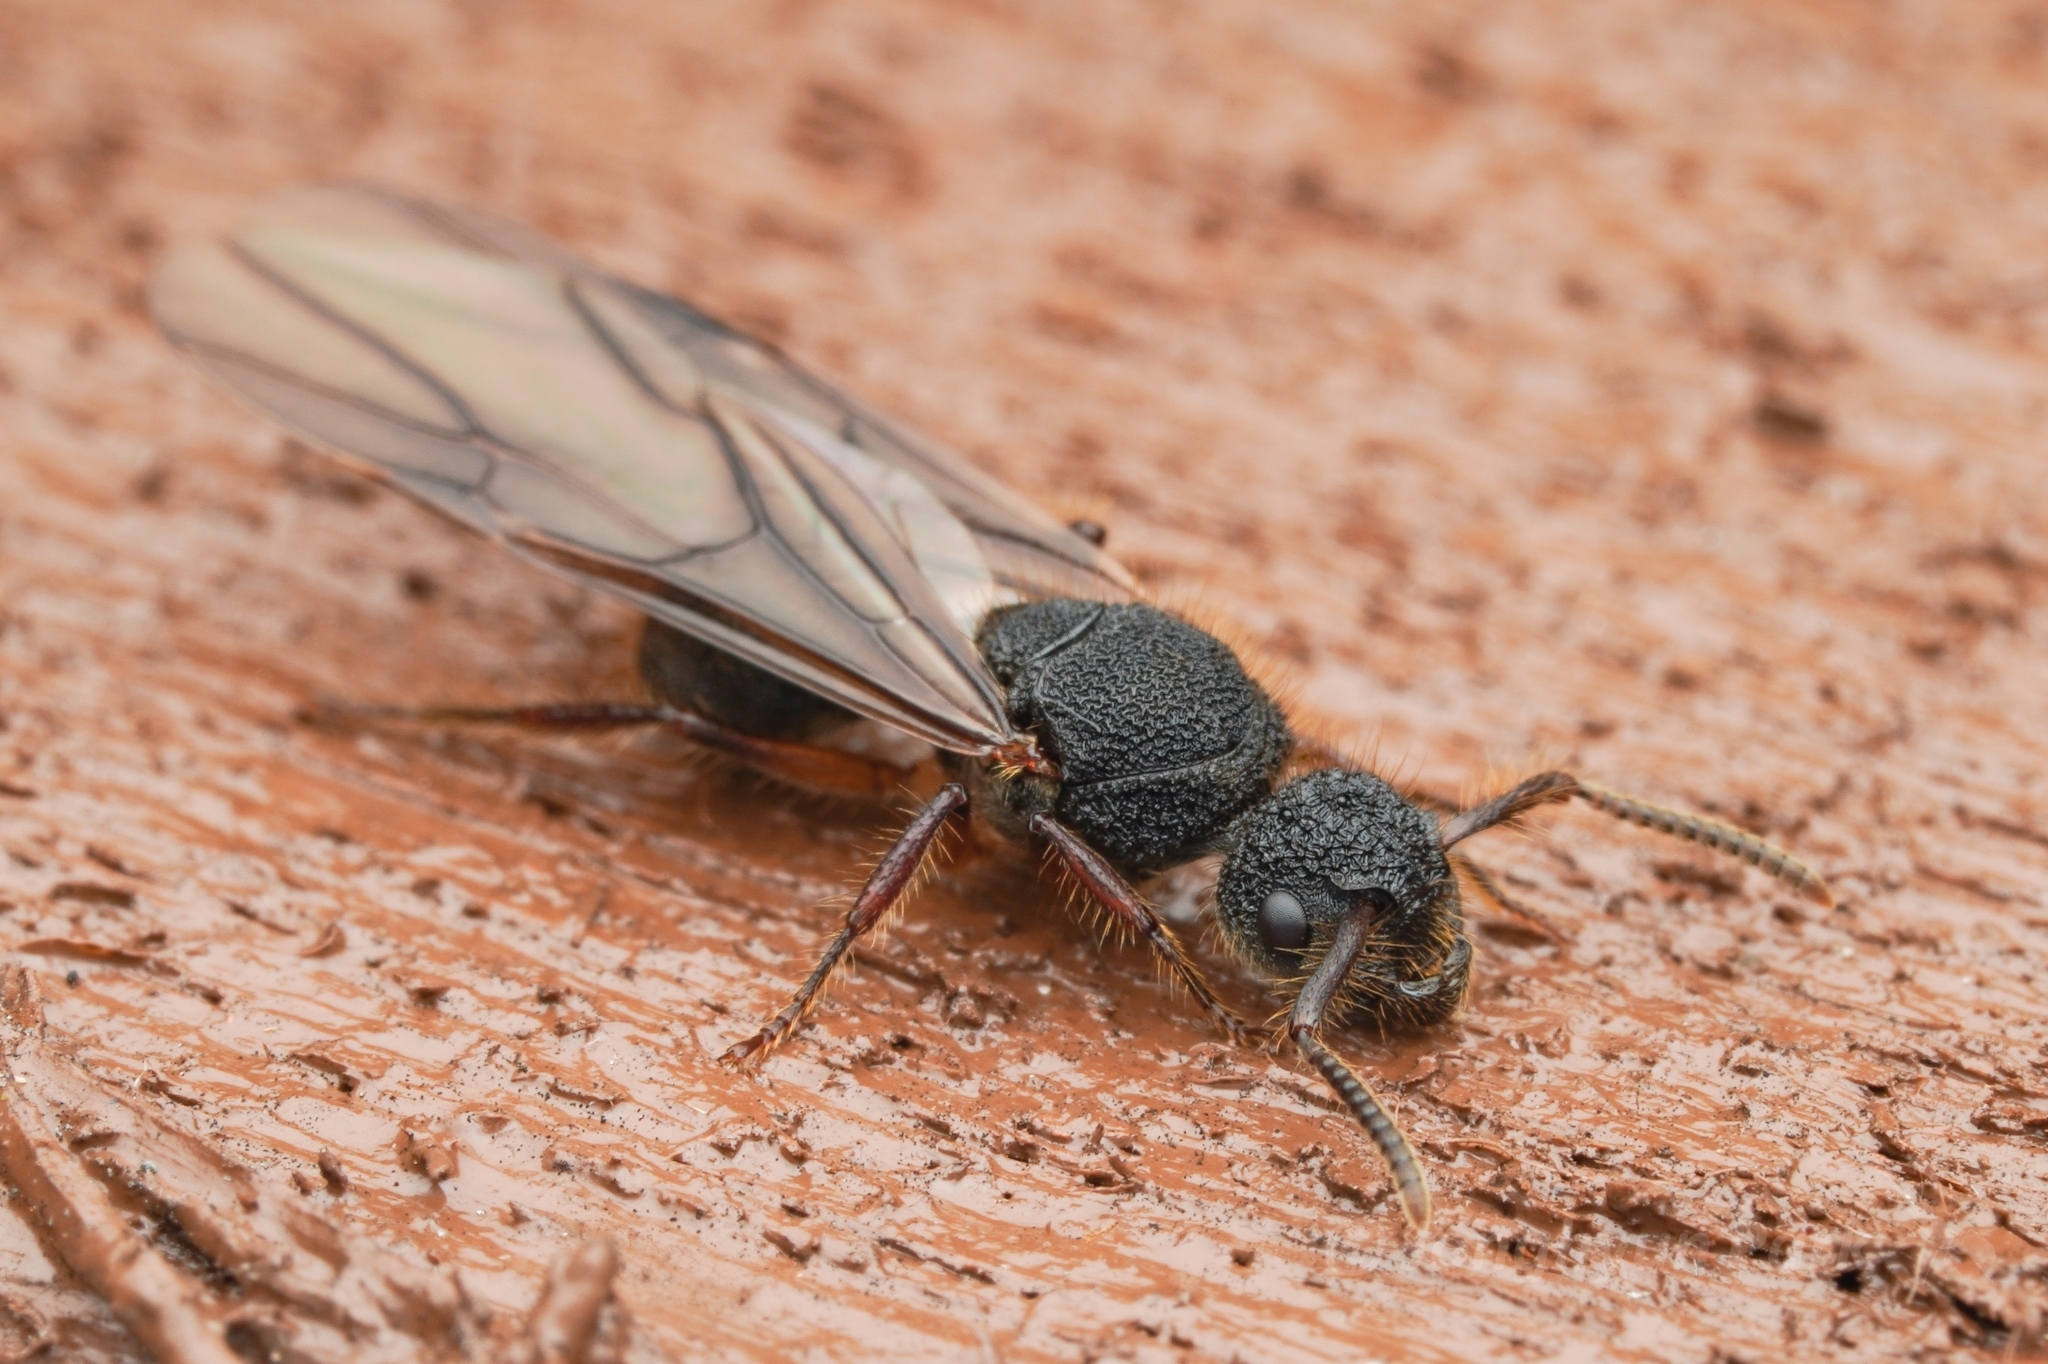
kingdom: Animalia
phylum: Arthropoda
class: Insecta
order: Hymenoptera
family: Formicidae
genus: Echinopla
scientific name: Echinopla tritschleri
